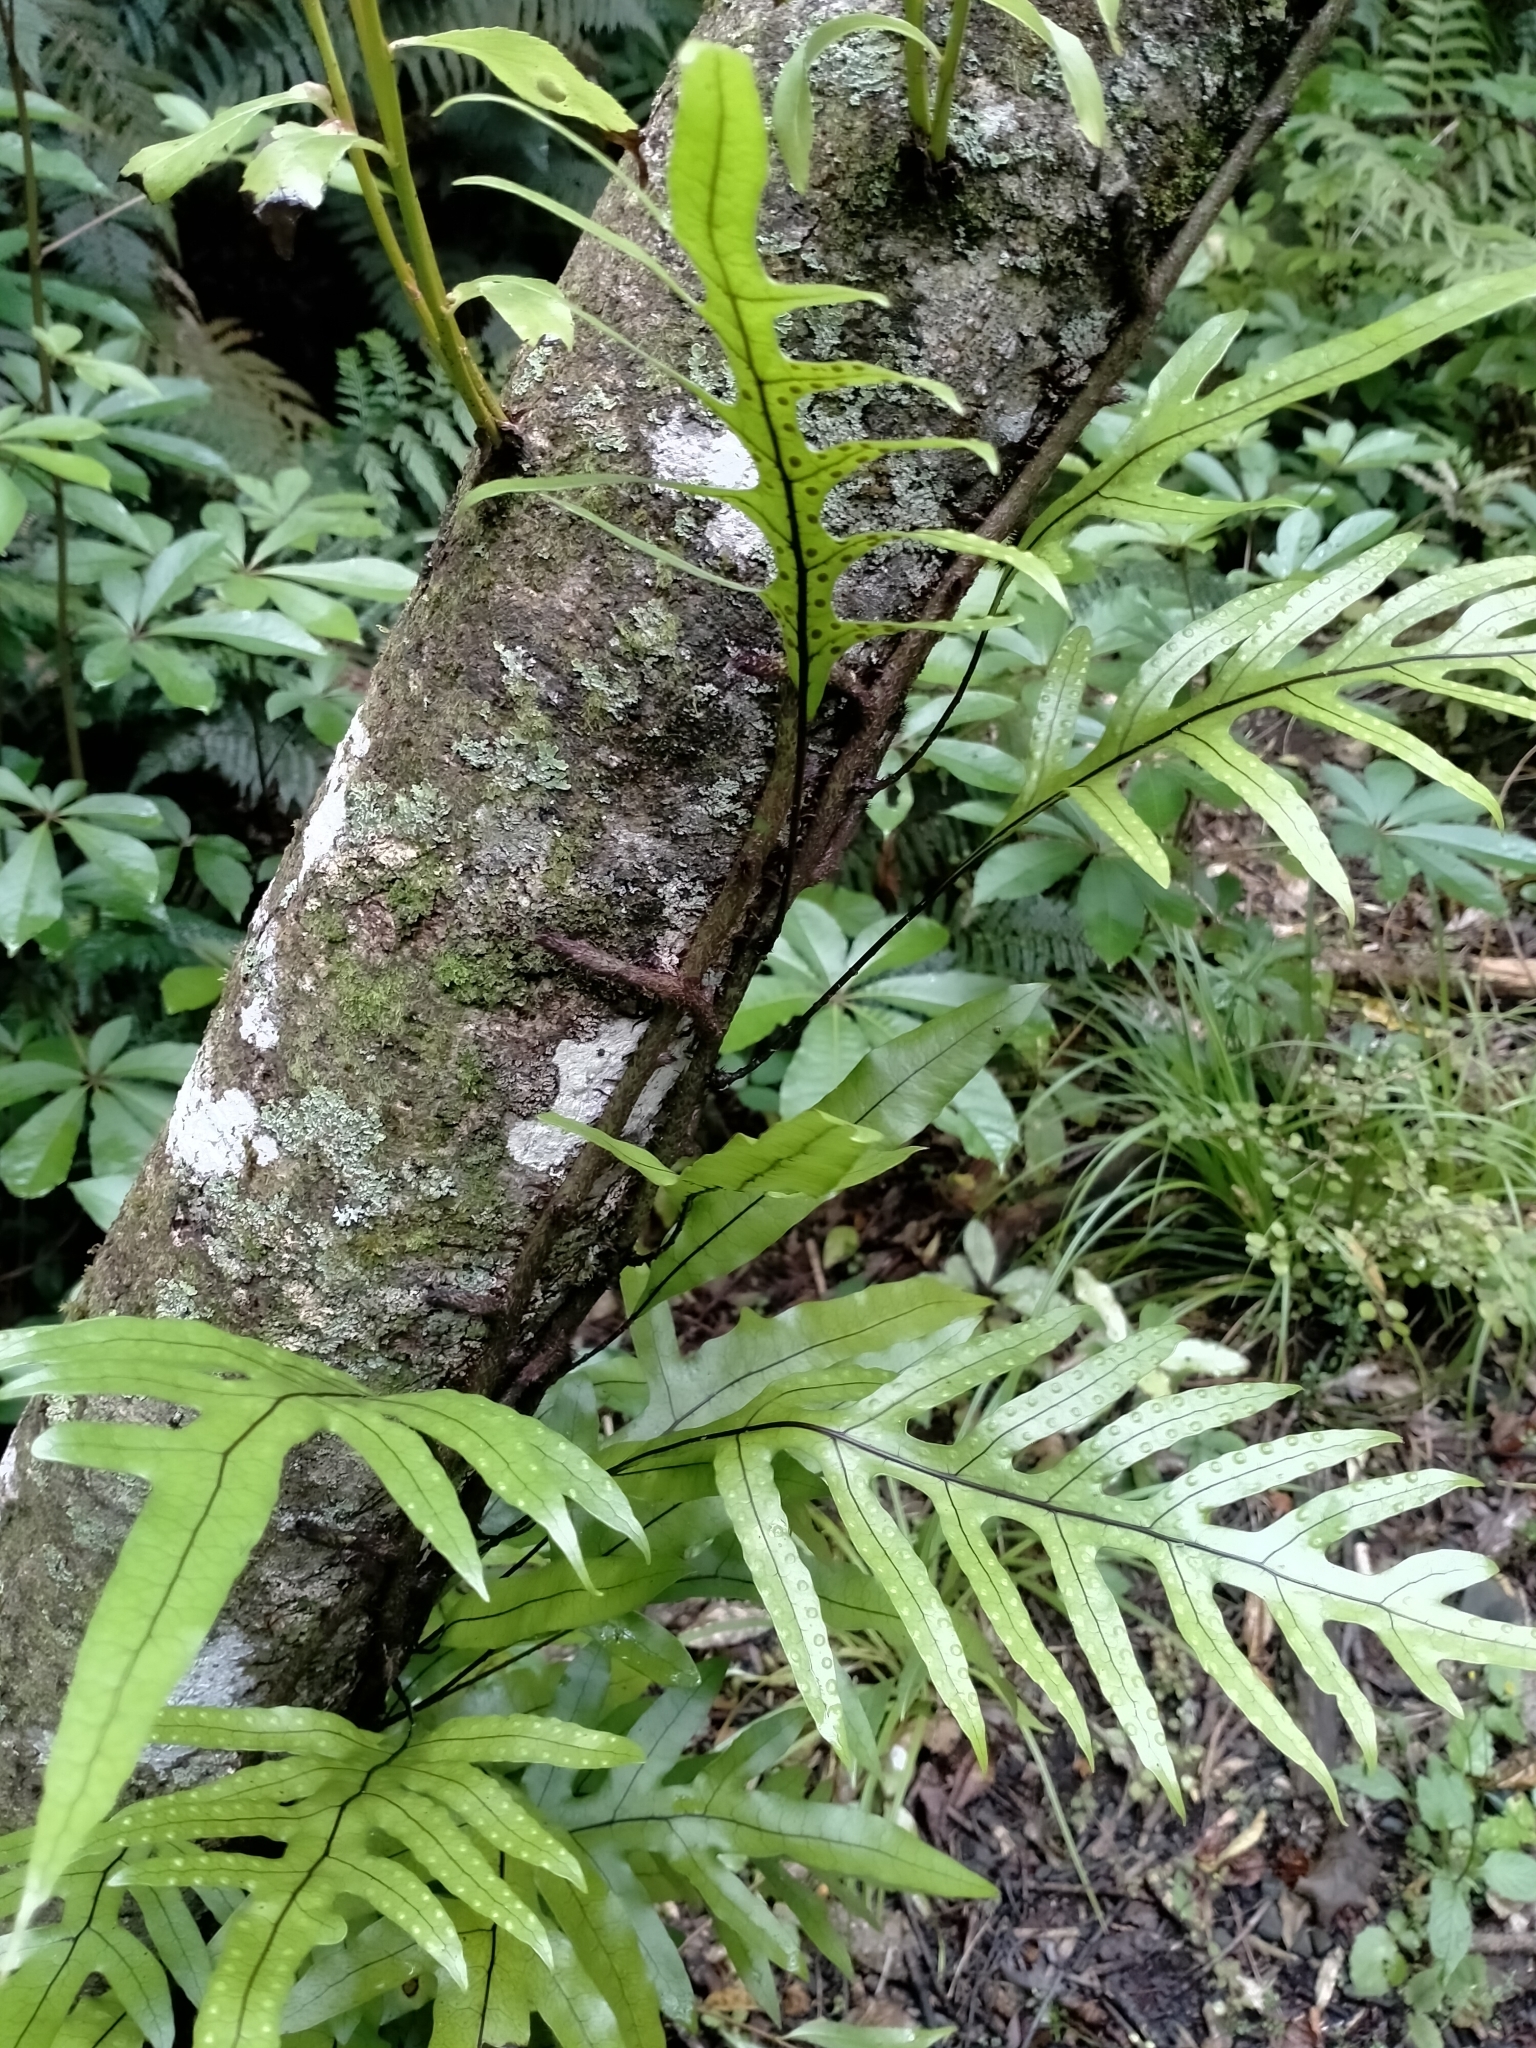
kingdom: Plantae
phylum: Tracheophyta
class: Polypodiopsida
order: Polypodiales
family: Polypodiaceae
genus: Lecanopteris
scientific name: Lecanopteris pustulata
